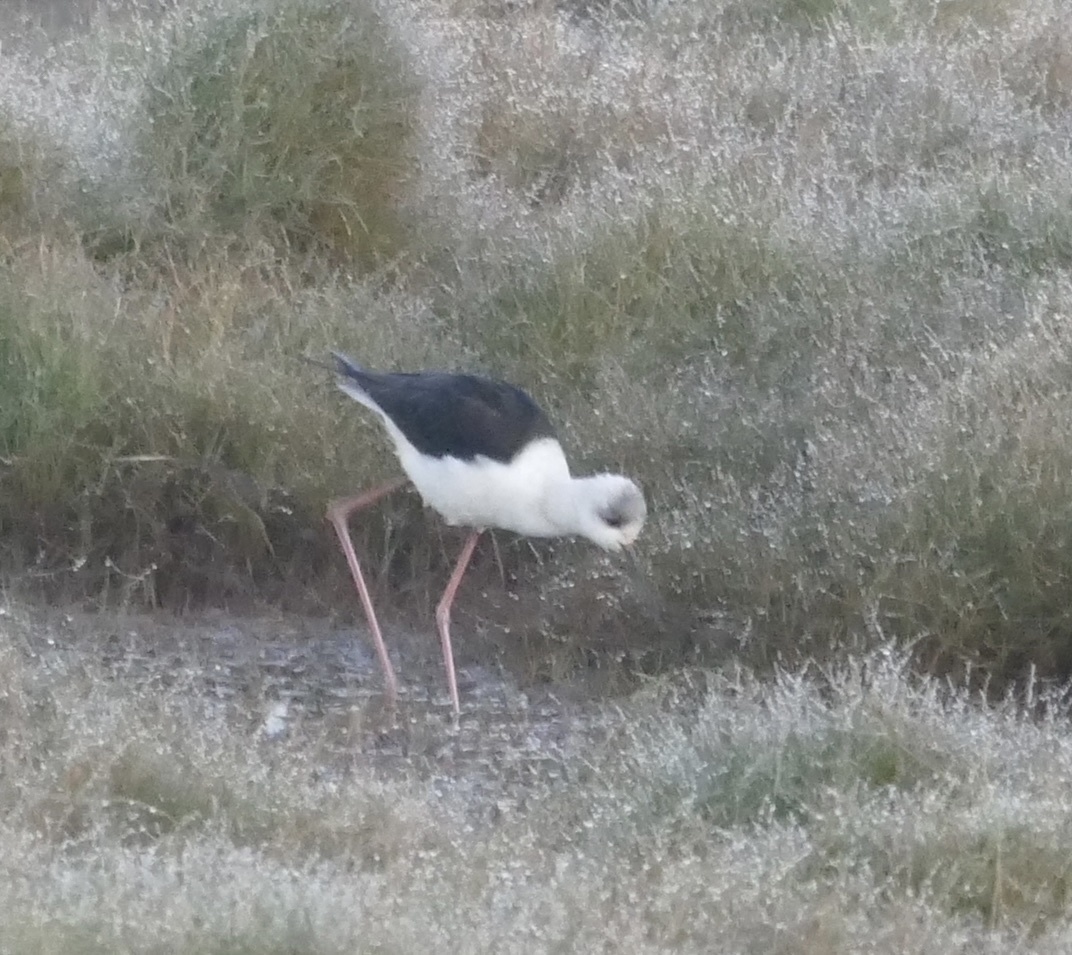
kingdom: Animalia
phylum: Chordata
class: Aves
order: Charadriiformes
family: Recurvirostridae
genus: Himantopus
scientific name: Himantopus leucocephalus
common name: White-headed stilt
